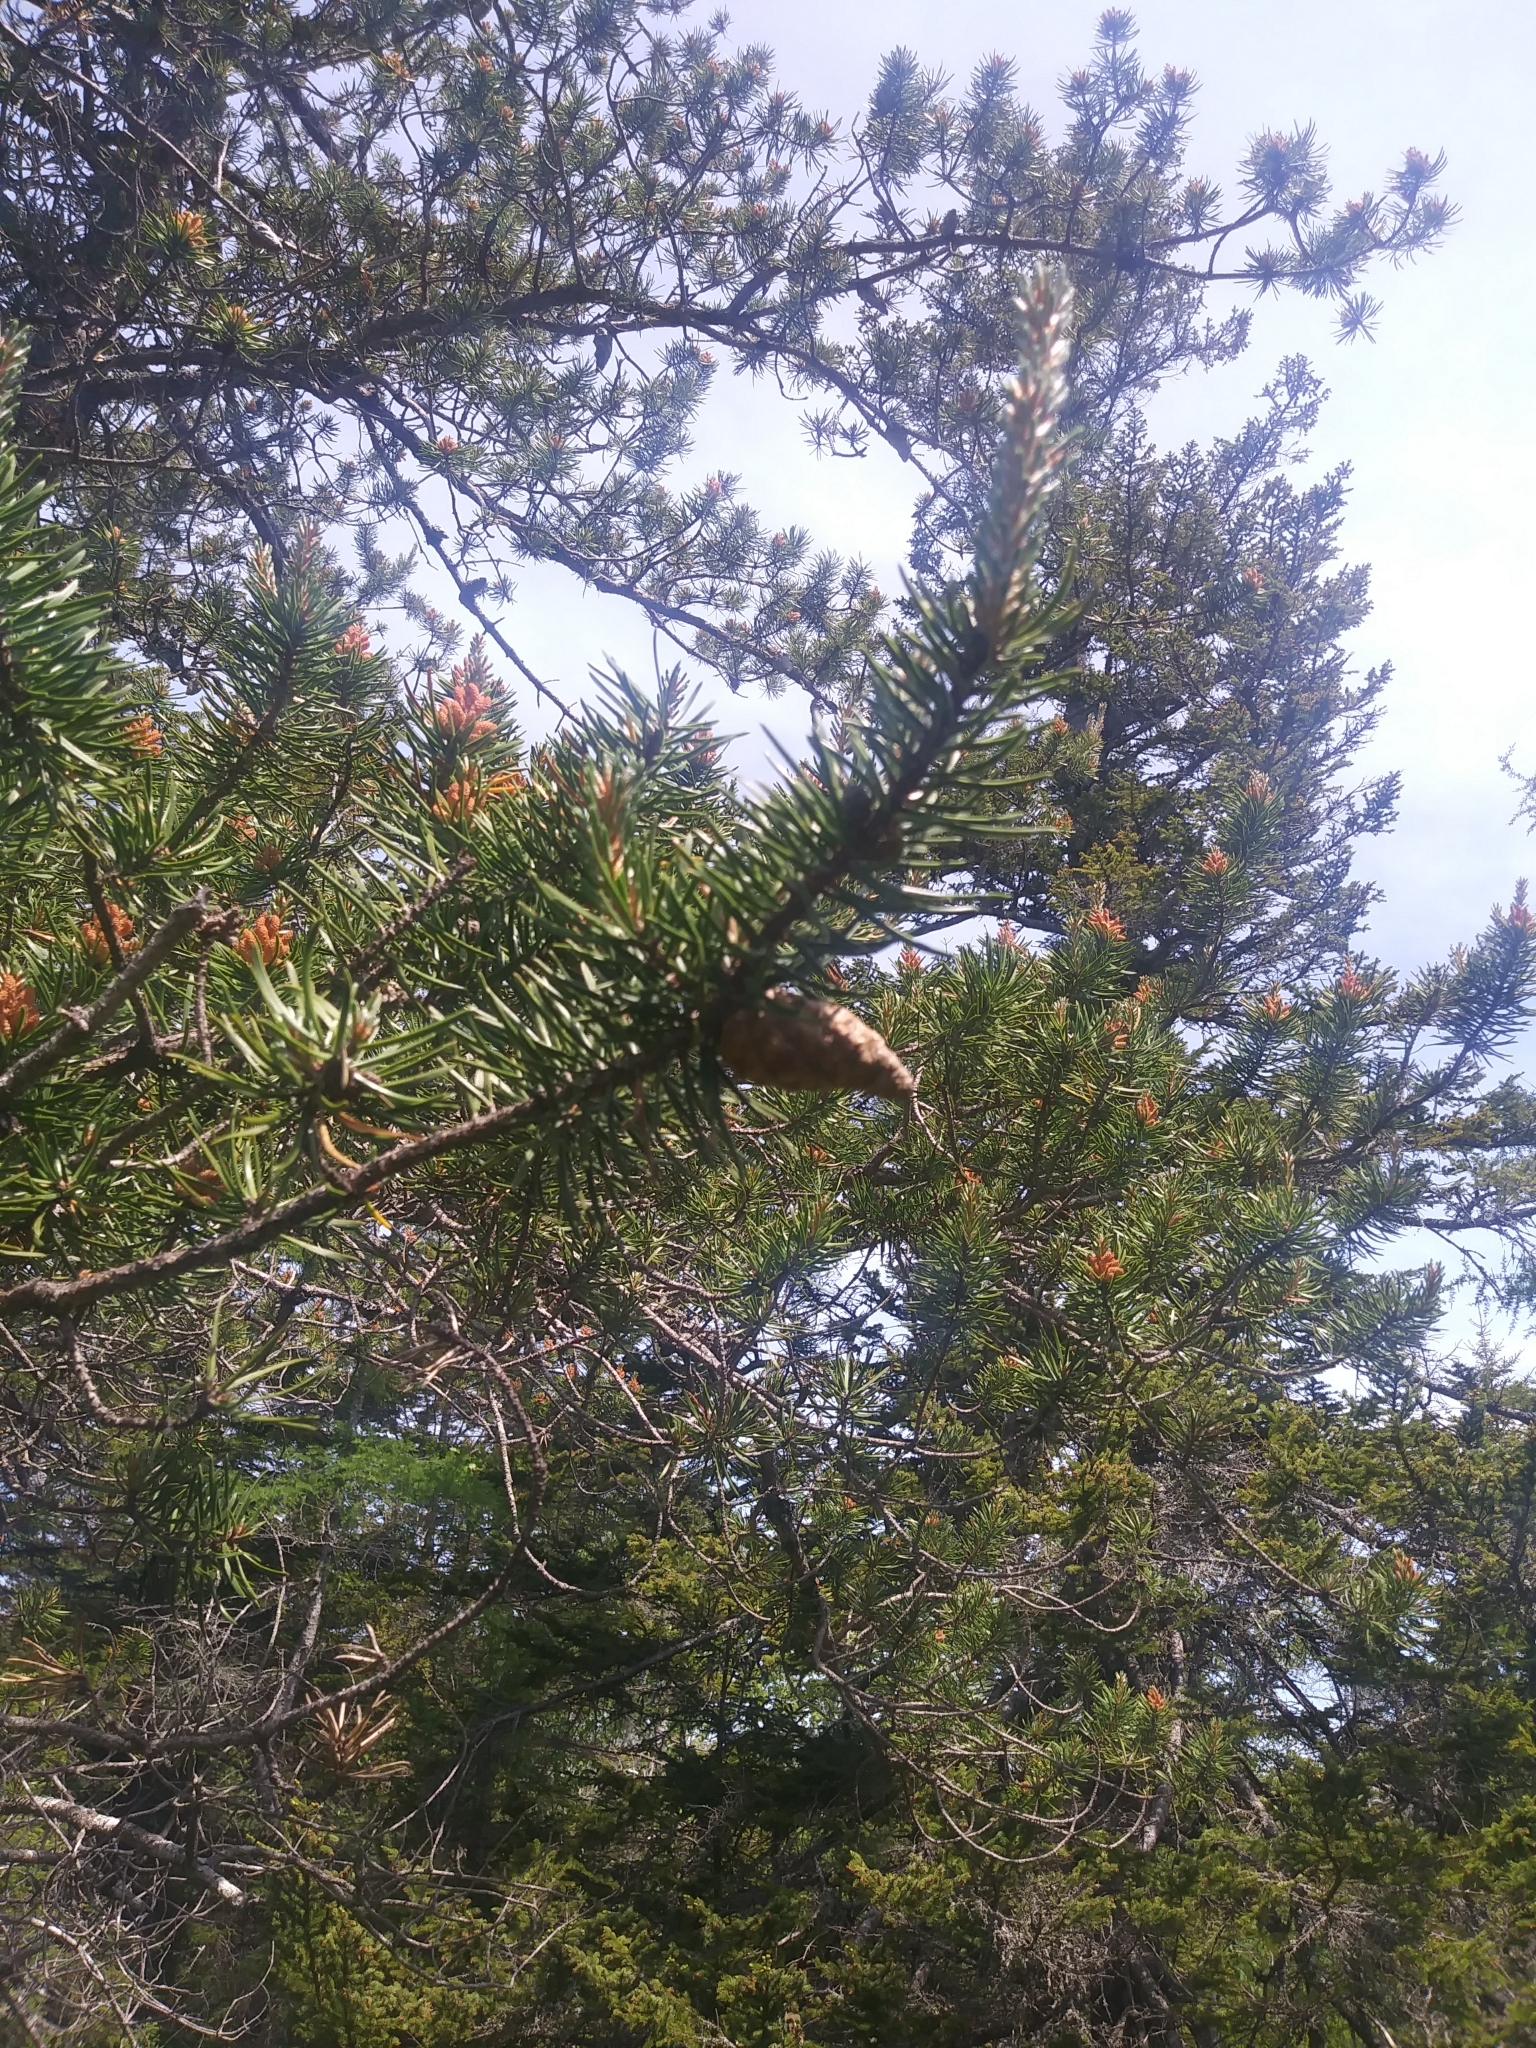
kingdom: Plantae
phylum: Tracheophyta
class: Pinopsida
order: Pinales
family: Pinaceae
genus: Pinus
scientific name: Pinus banksiana
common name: Jack pine
